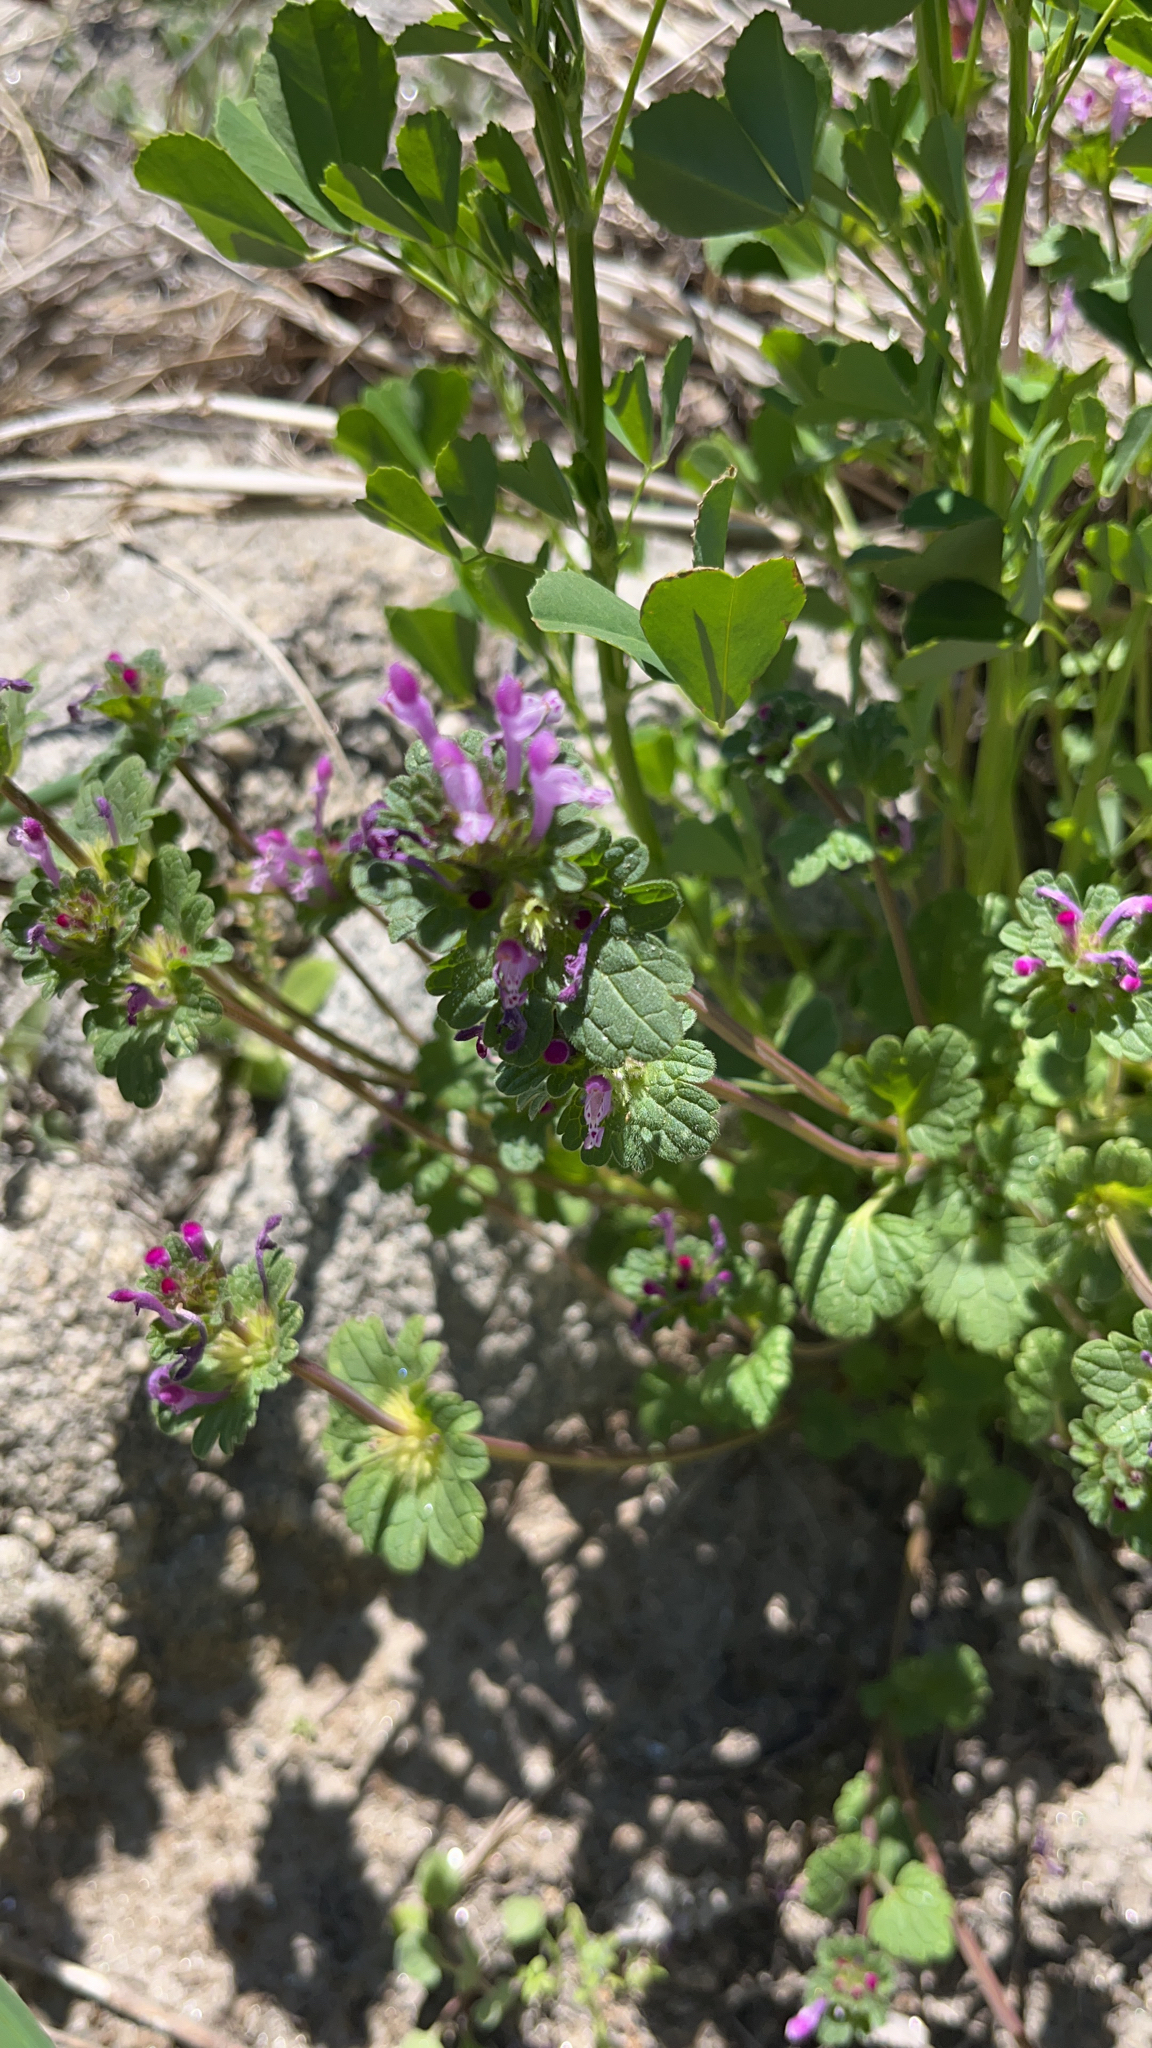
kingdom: Plantae
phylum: Tracheophyta
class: Magnoliopsida
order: Lamiales
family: Lamiaceae
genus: Lamium
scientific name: Lamium amplexicaule
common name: Henbit dead-nettle
